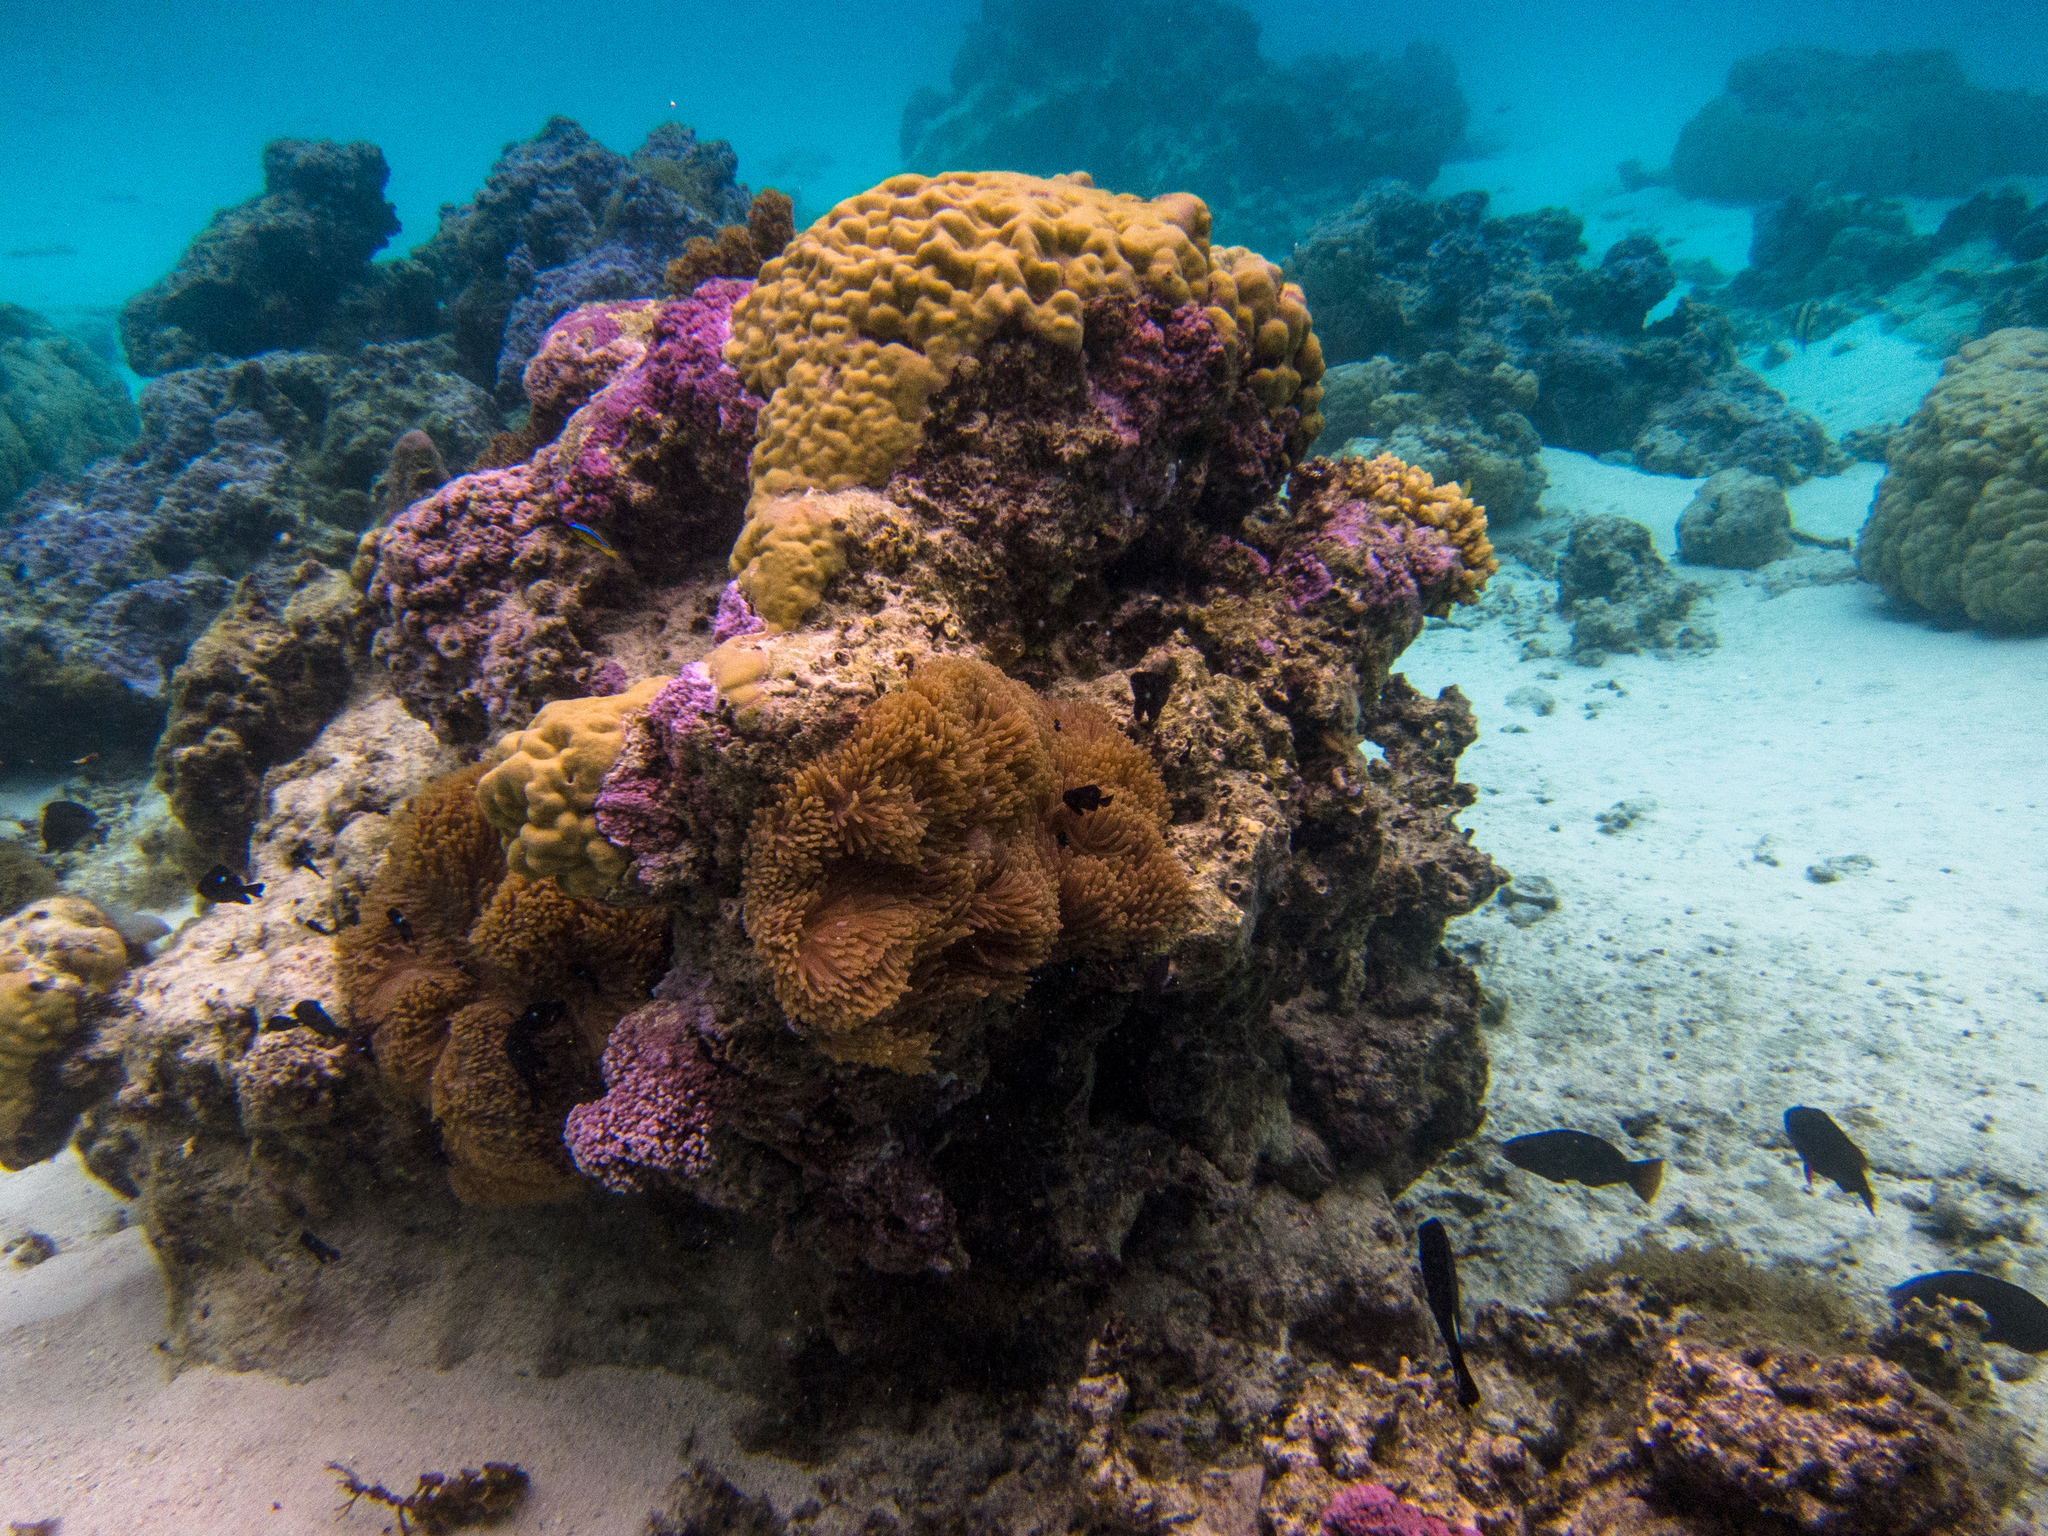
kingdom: Animalia
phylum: Cnidaria
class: Anthozoa
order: Actiniaria
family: Stichodactylidae
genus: Radianthus
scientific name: Radianthus magnifica
